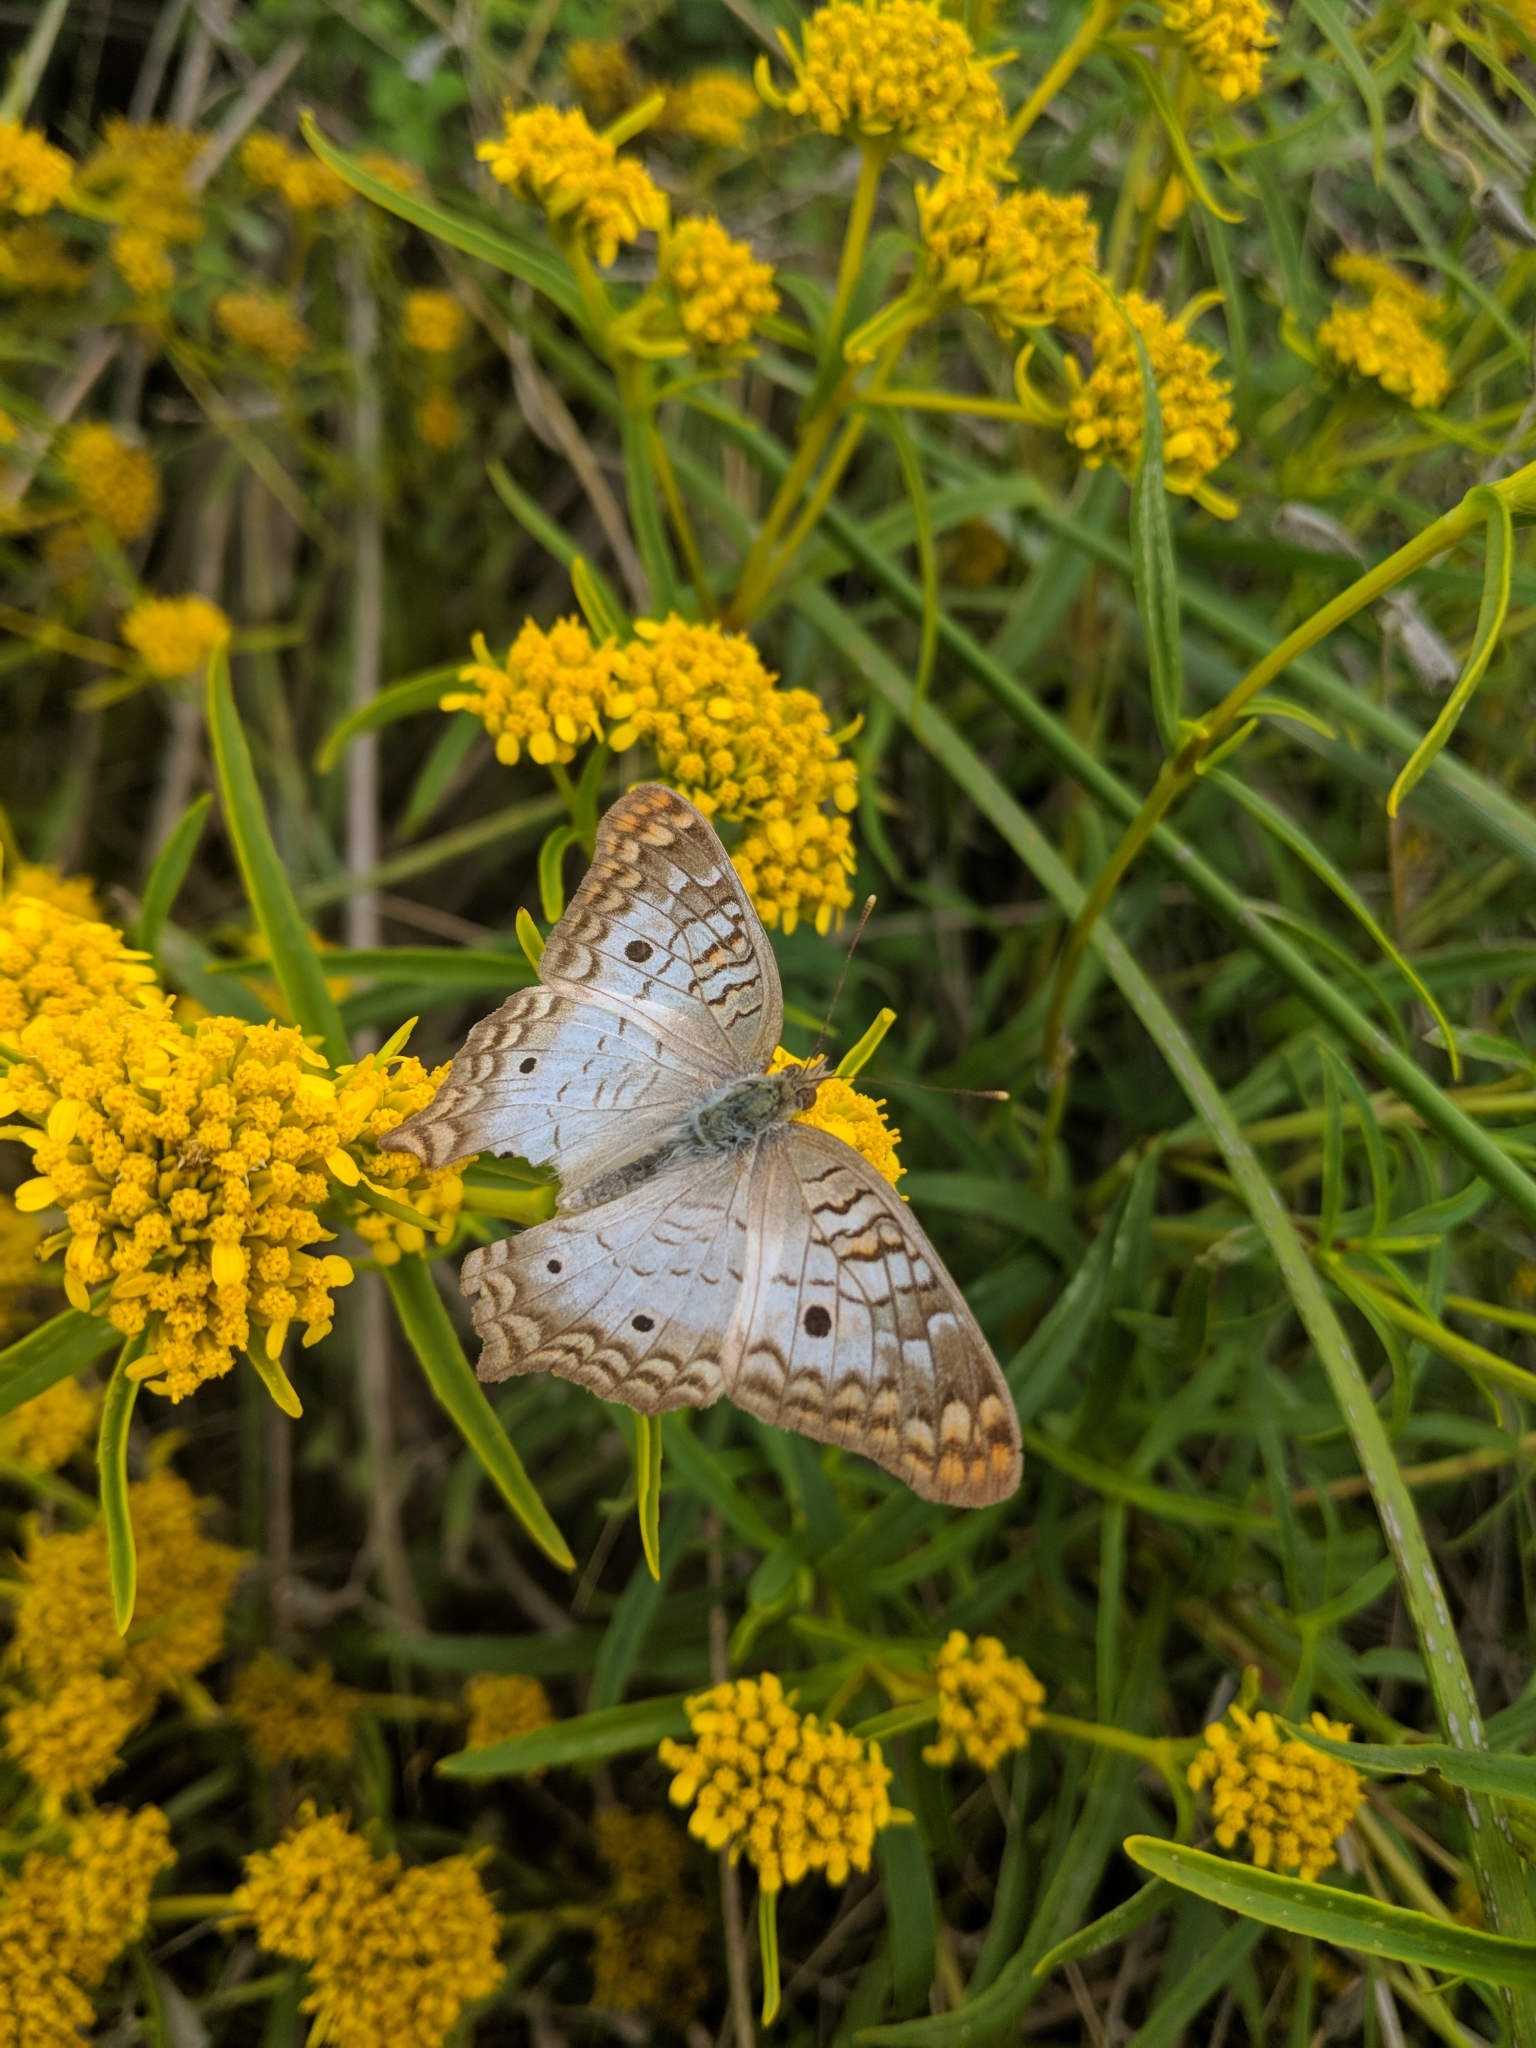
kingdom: Animalia
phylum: Arthropoda
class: Insecta
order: Lepidoptera
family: Nymphalidae
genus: Anartia
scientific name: Anartia jatrophae
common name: White peacock
